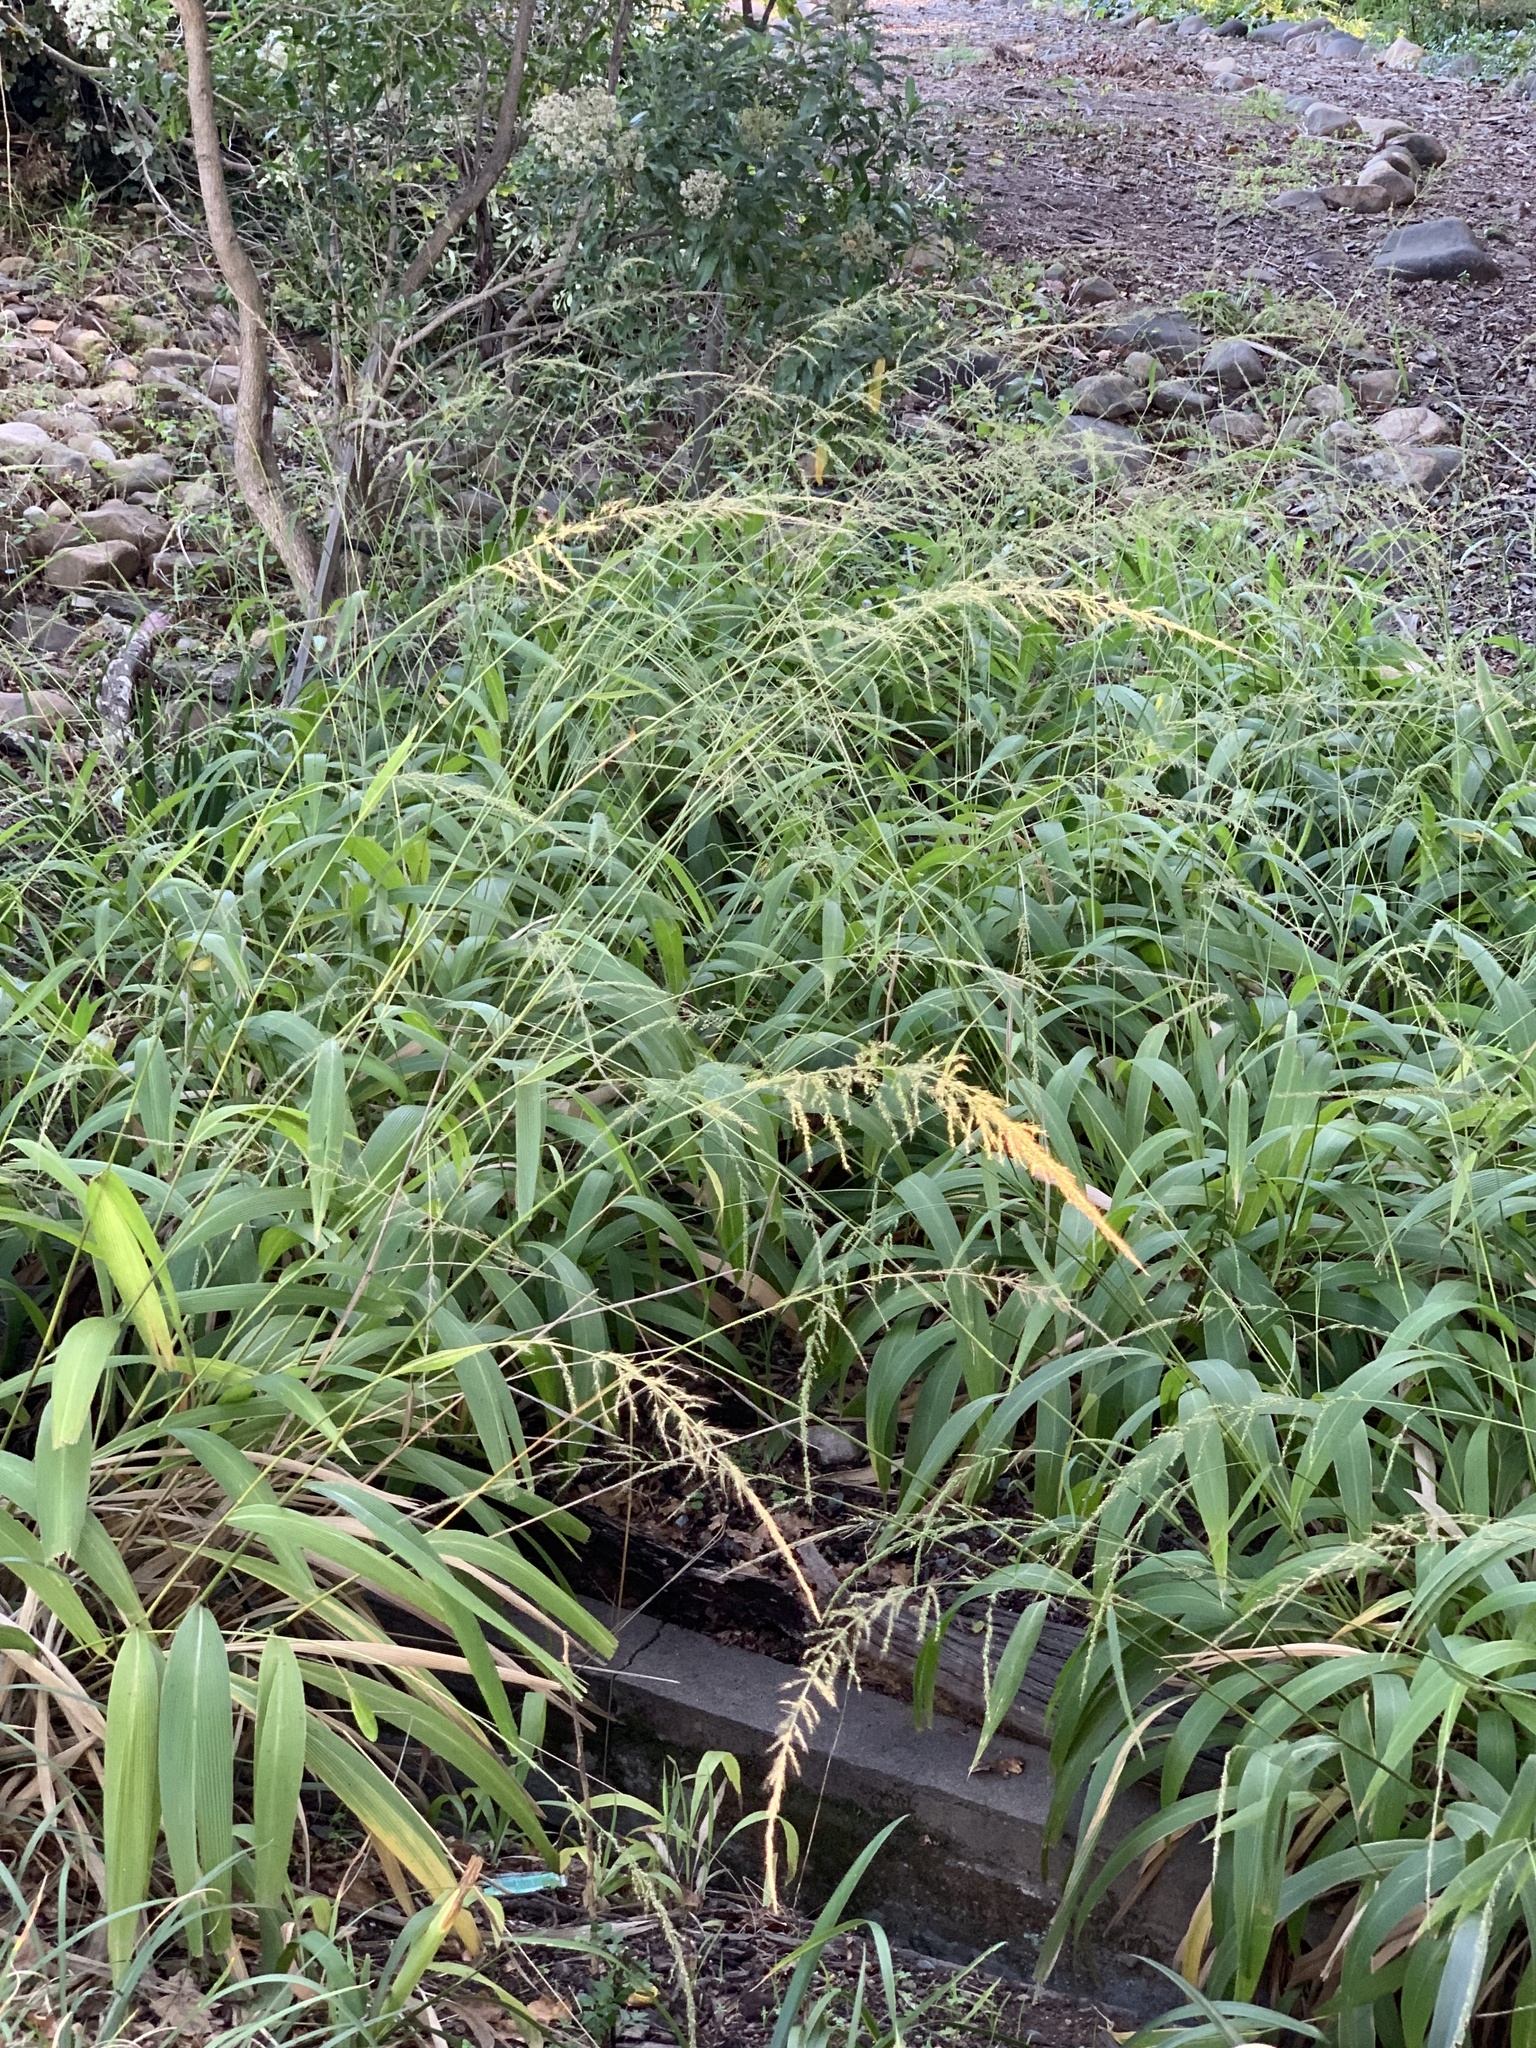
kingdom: Plantae
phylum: Tracheophyta
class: Liliopsida
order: Poales
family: Poaceae
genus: Setaria
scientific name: Setaria megaphylla
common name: Bigleaf bristlegrass
